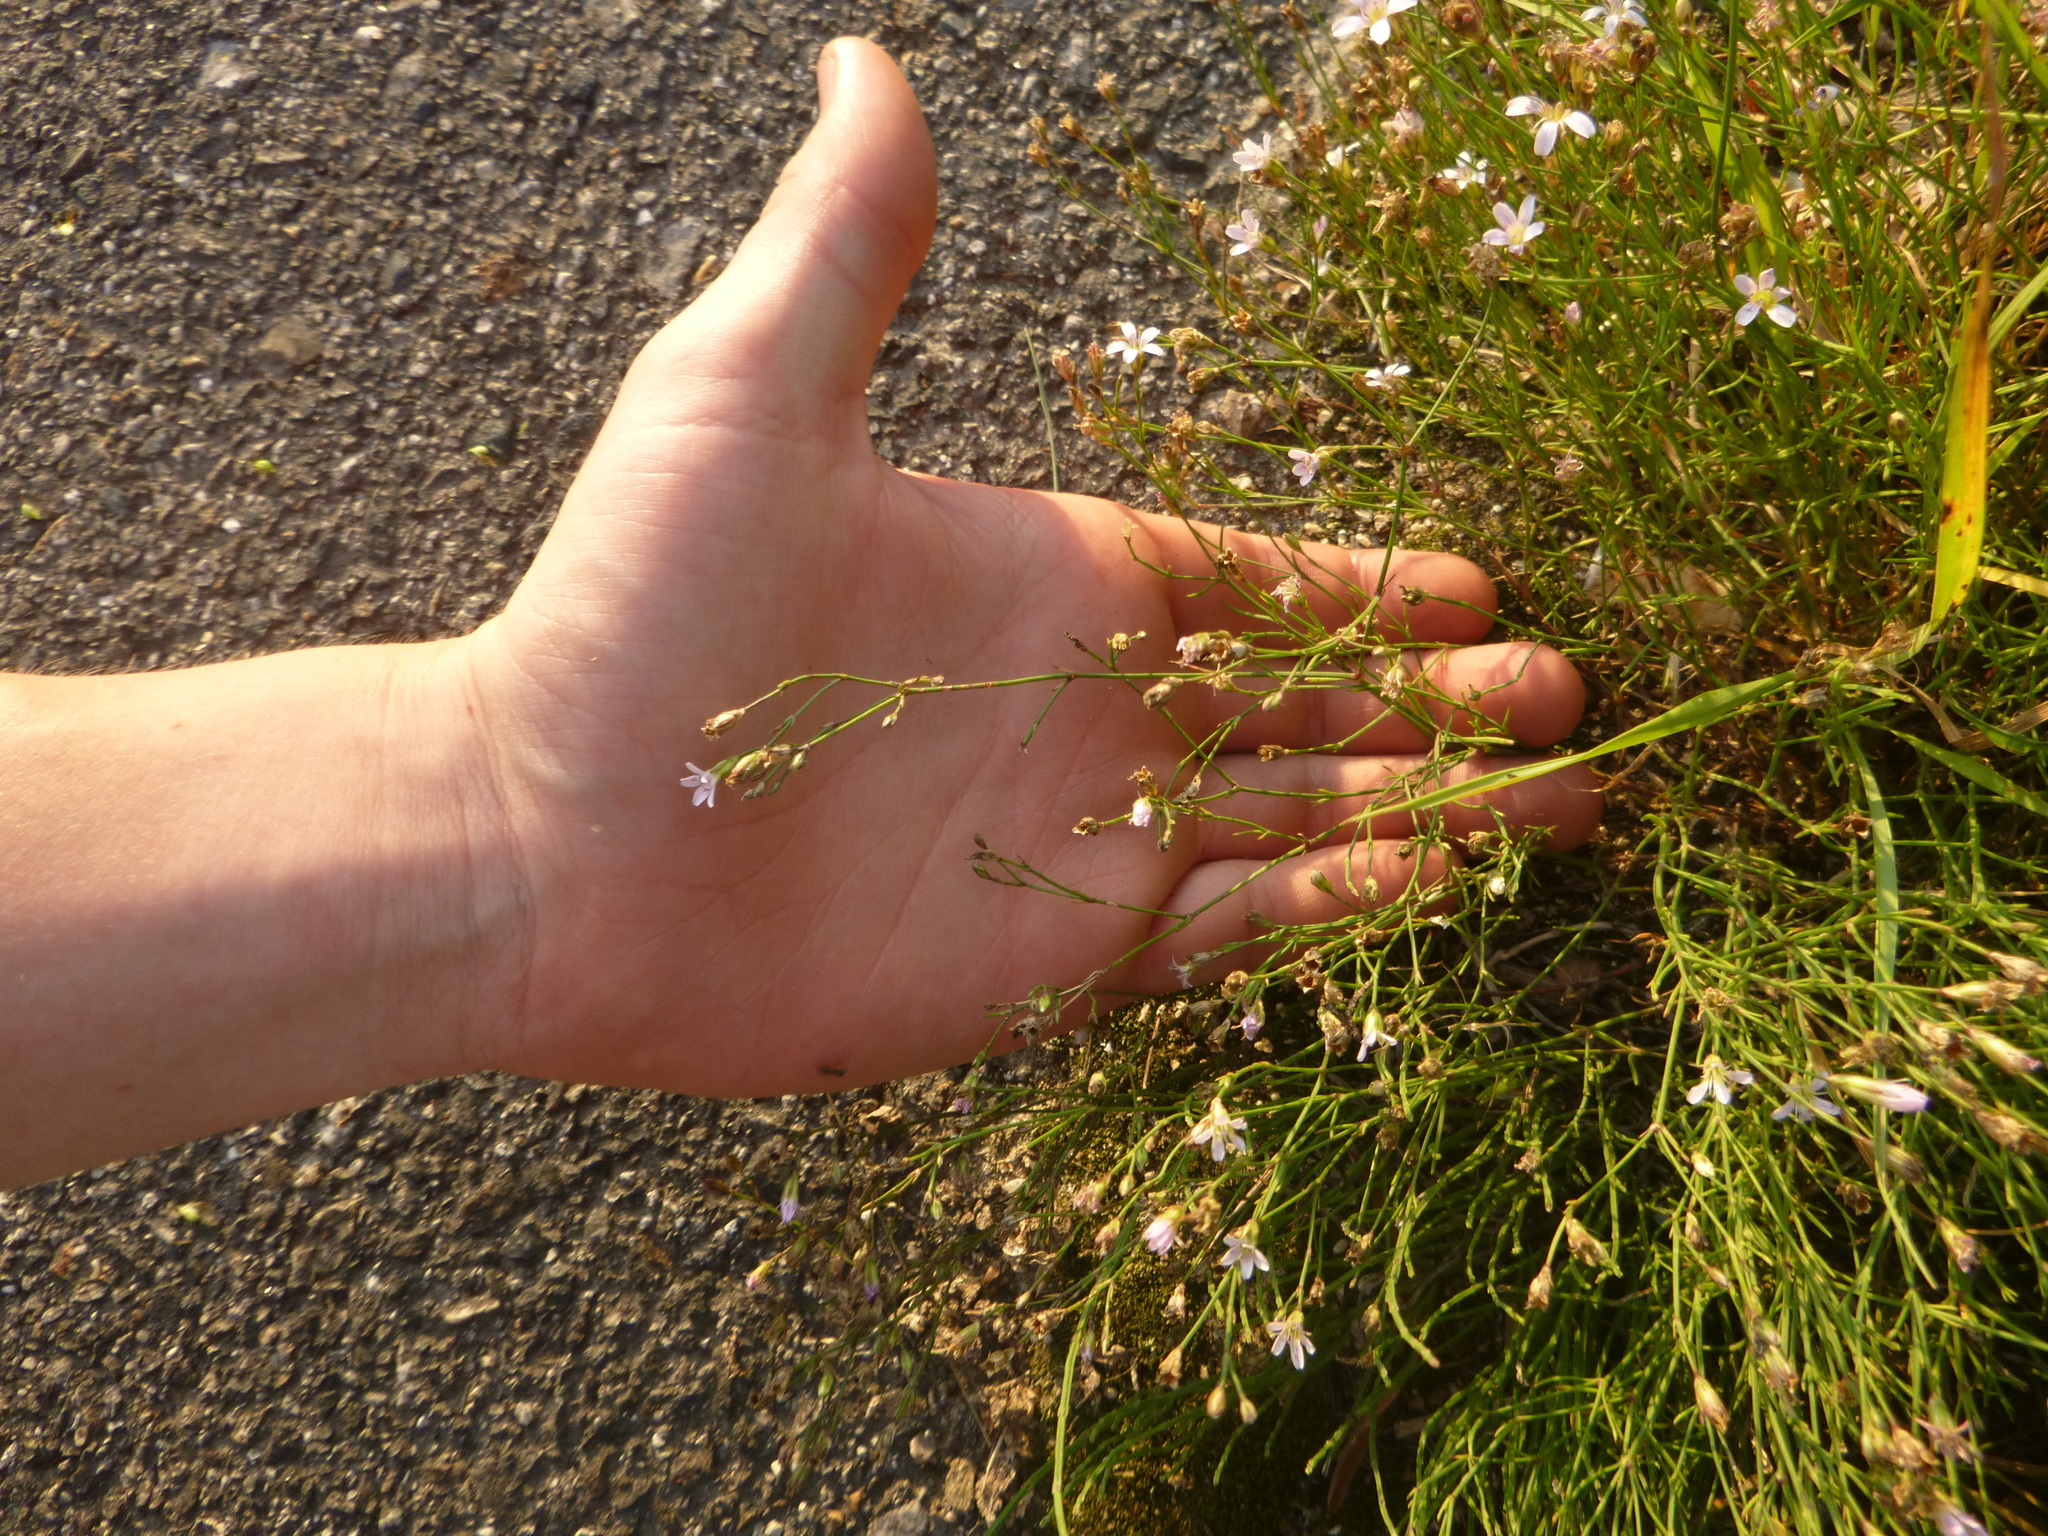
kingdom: Plantae
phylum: Tracheophyta
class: Magnoliopsida
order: Caryophyllales
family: Caryophyllaceae
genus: Petrorhagia
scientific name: Petrorhagia saxifraga
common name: Tunicflower
